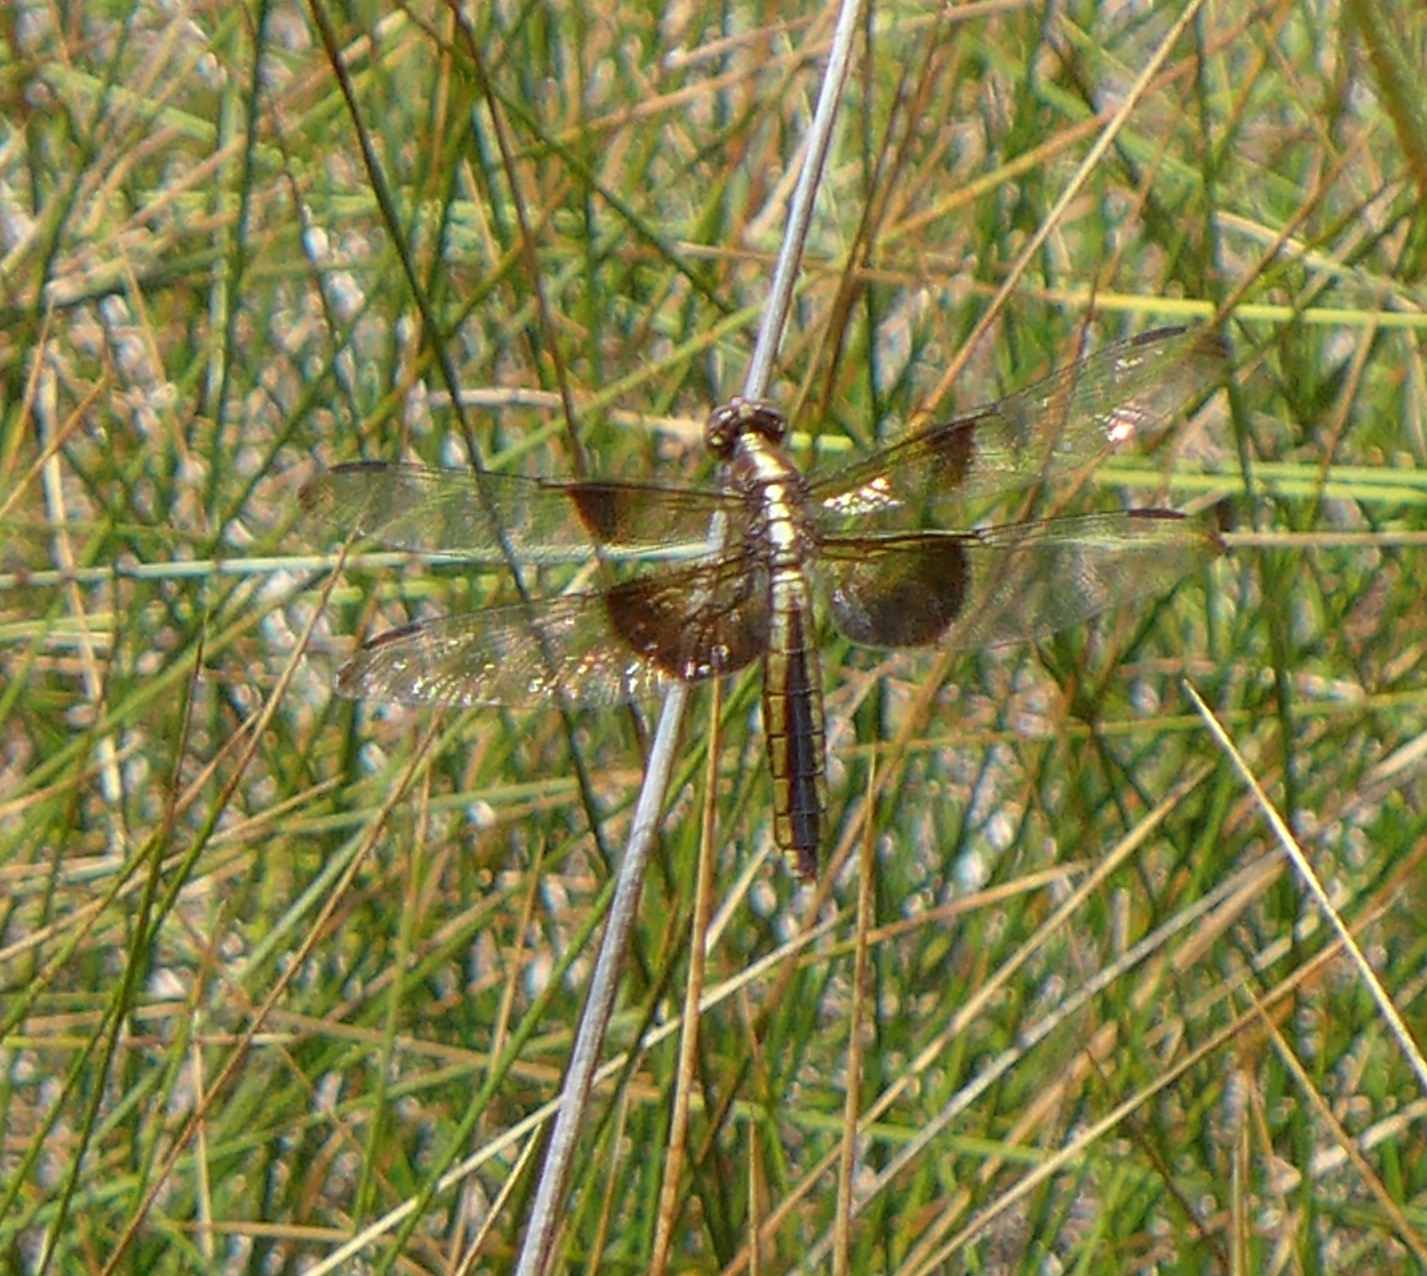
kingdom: Animalia
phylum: Arthropoda
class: Insecta
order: Odonata
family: Libellulidae
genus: Libellula
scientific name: Libellula luctuosa
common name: Widow skimmer
